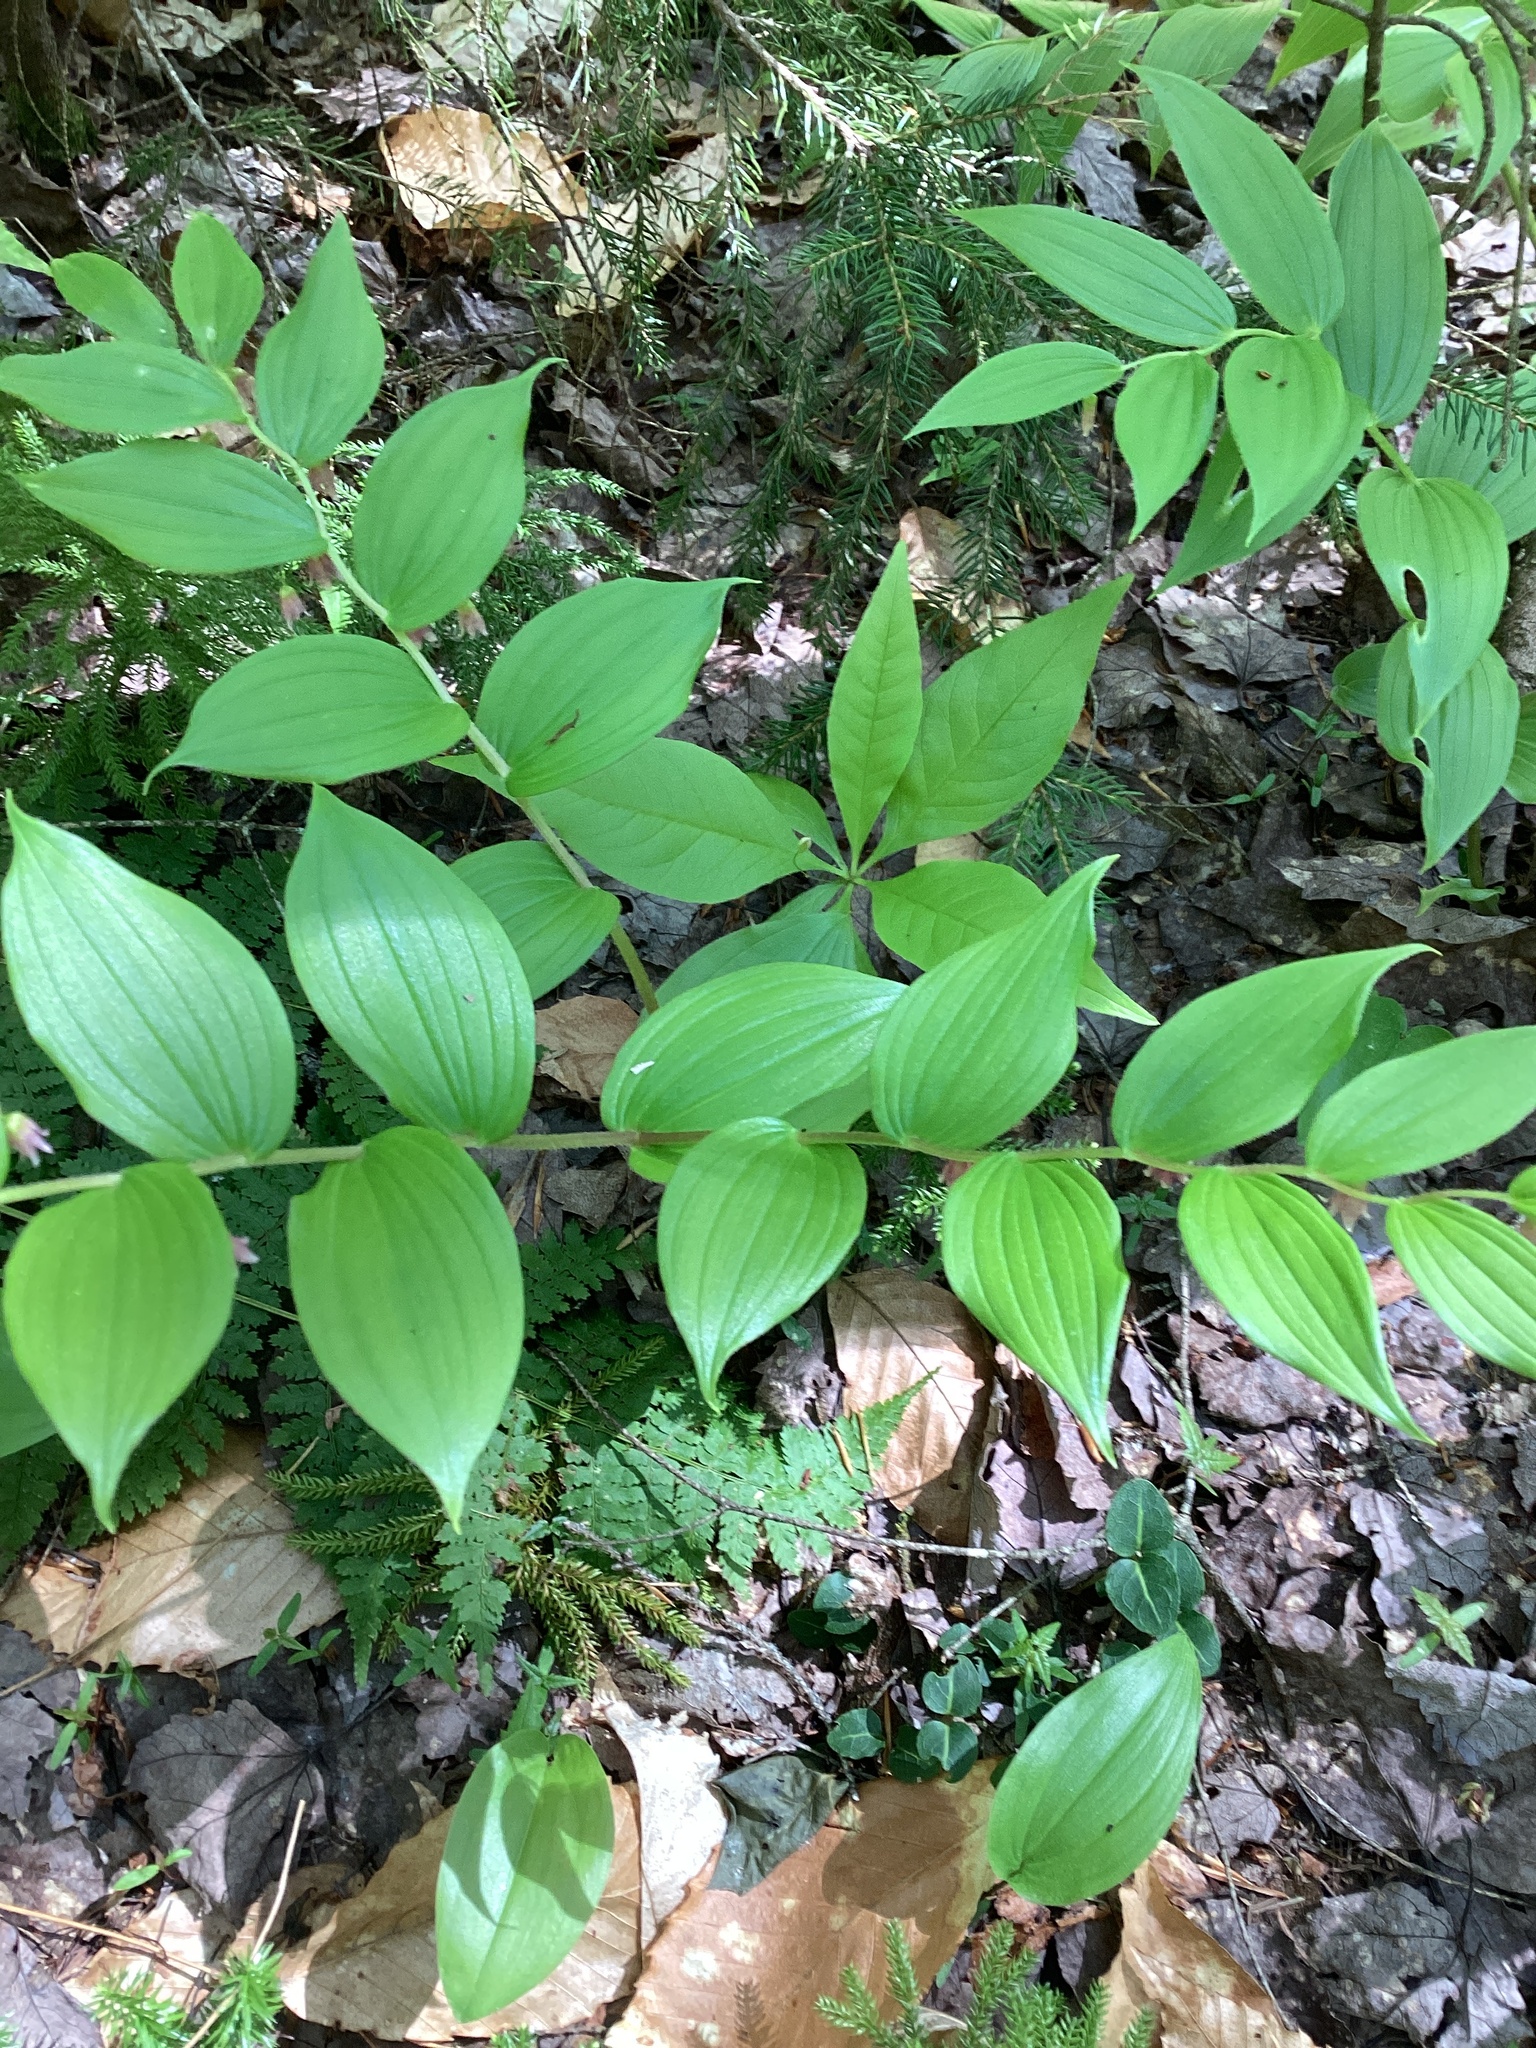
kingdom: Plantae
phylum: Tracheophyta
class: Liliopsida
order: Liliales
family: Liliaceae
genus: Streptopus
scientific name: Streptopus lanceolatus
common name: Rose mandarin
